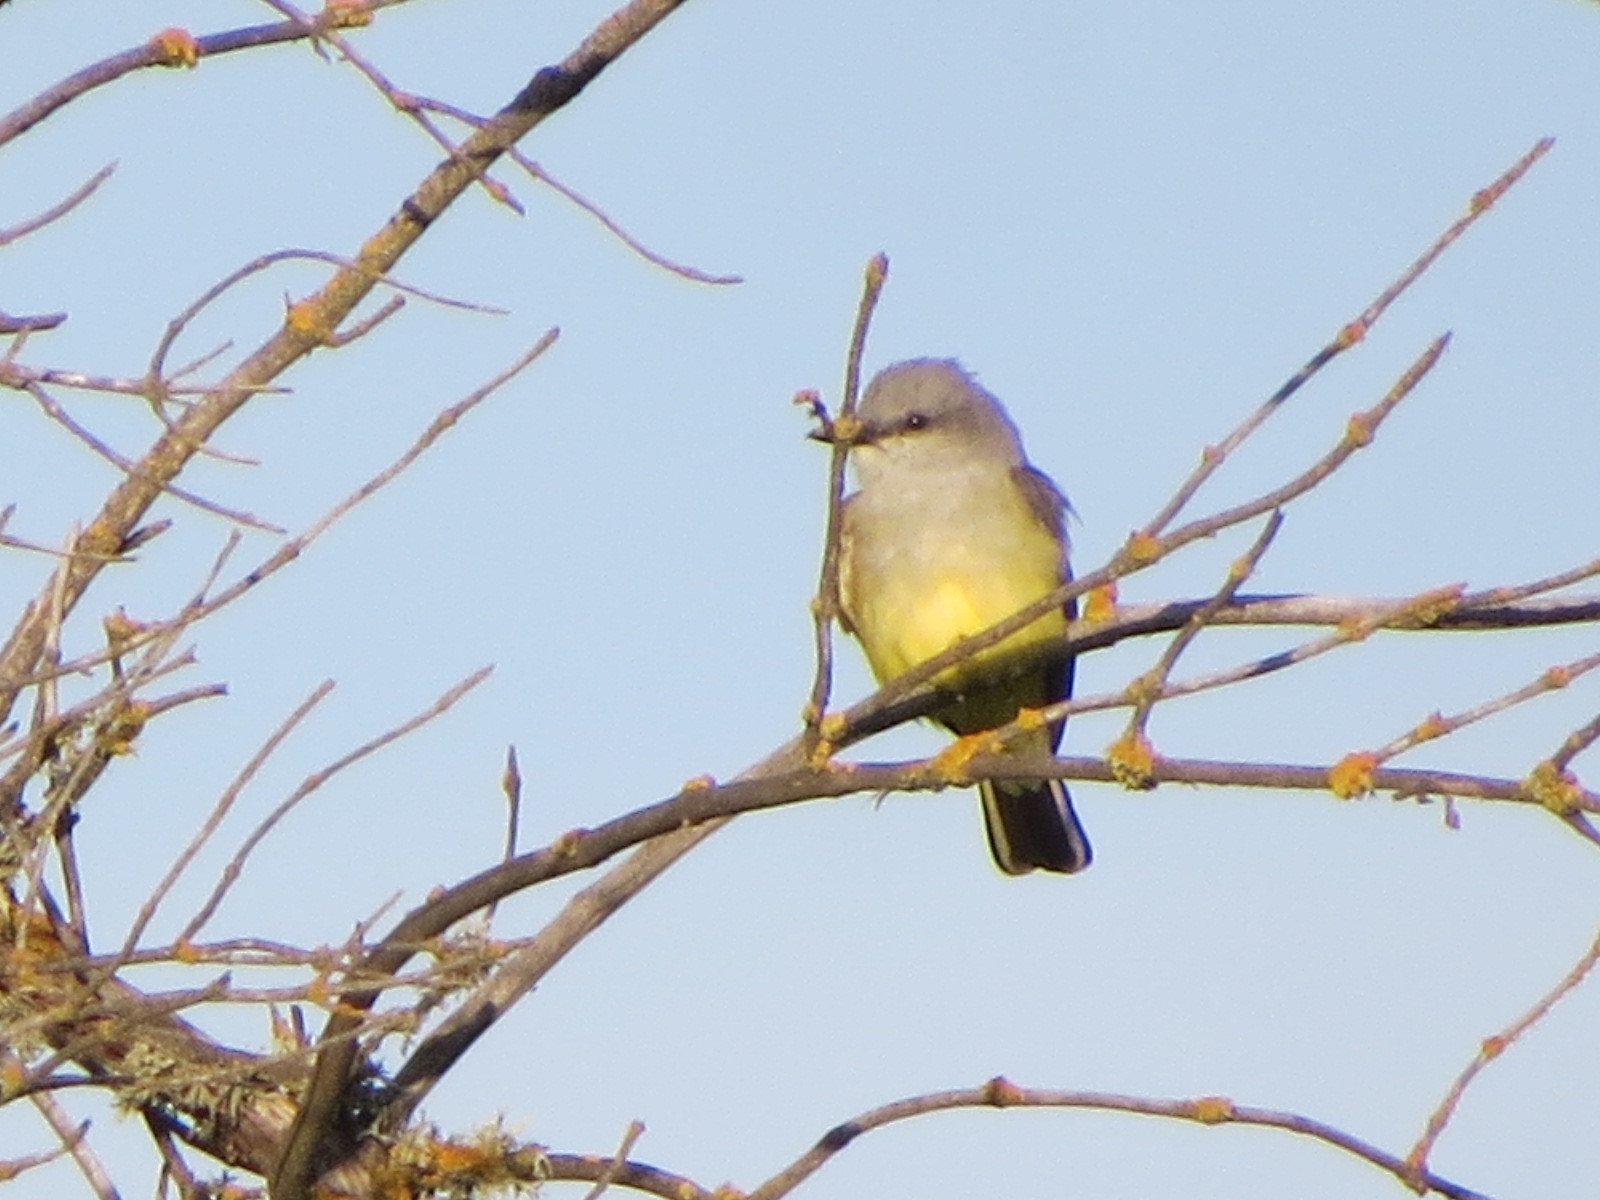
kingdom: Animalia
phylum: Chordata
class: Aves
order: Passeriformes
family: Tyrannidae
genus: Tyrannus
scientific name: Tyrannus verticalis
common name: Western kingbird
